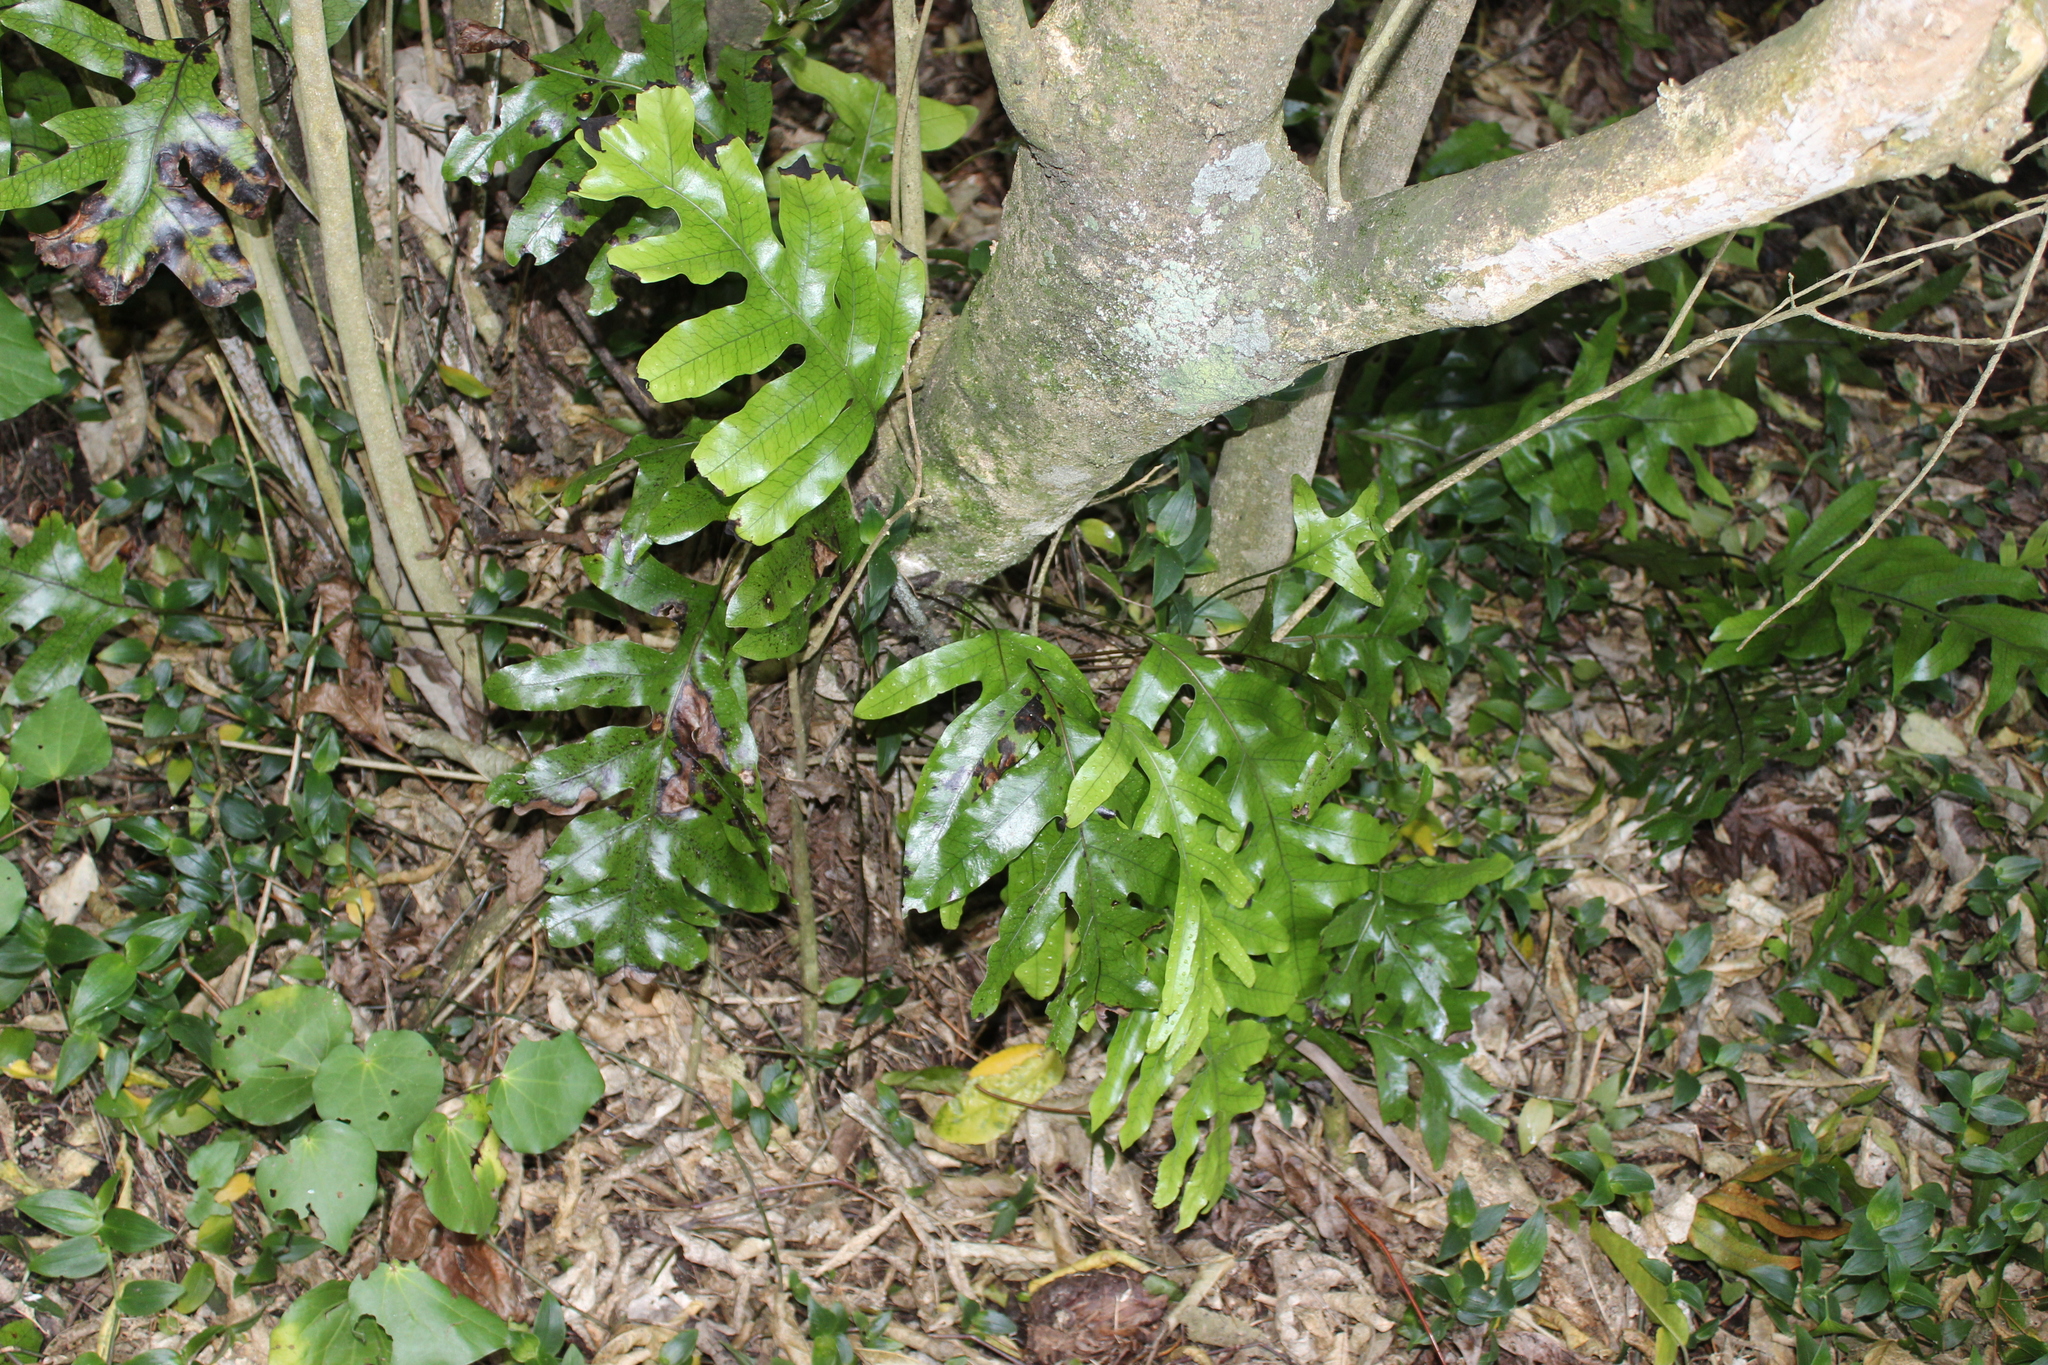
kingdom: Plantae
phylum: Tracheophyta
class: Polypodiopsida
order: Polypodiales
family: Polypodiaceae
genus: Lecanopteris
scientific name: Lecanopteris pustulata
